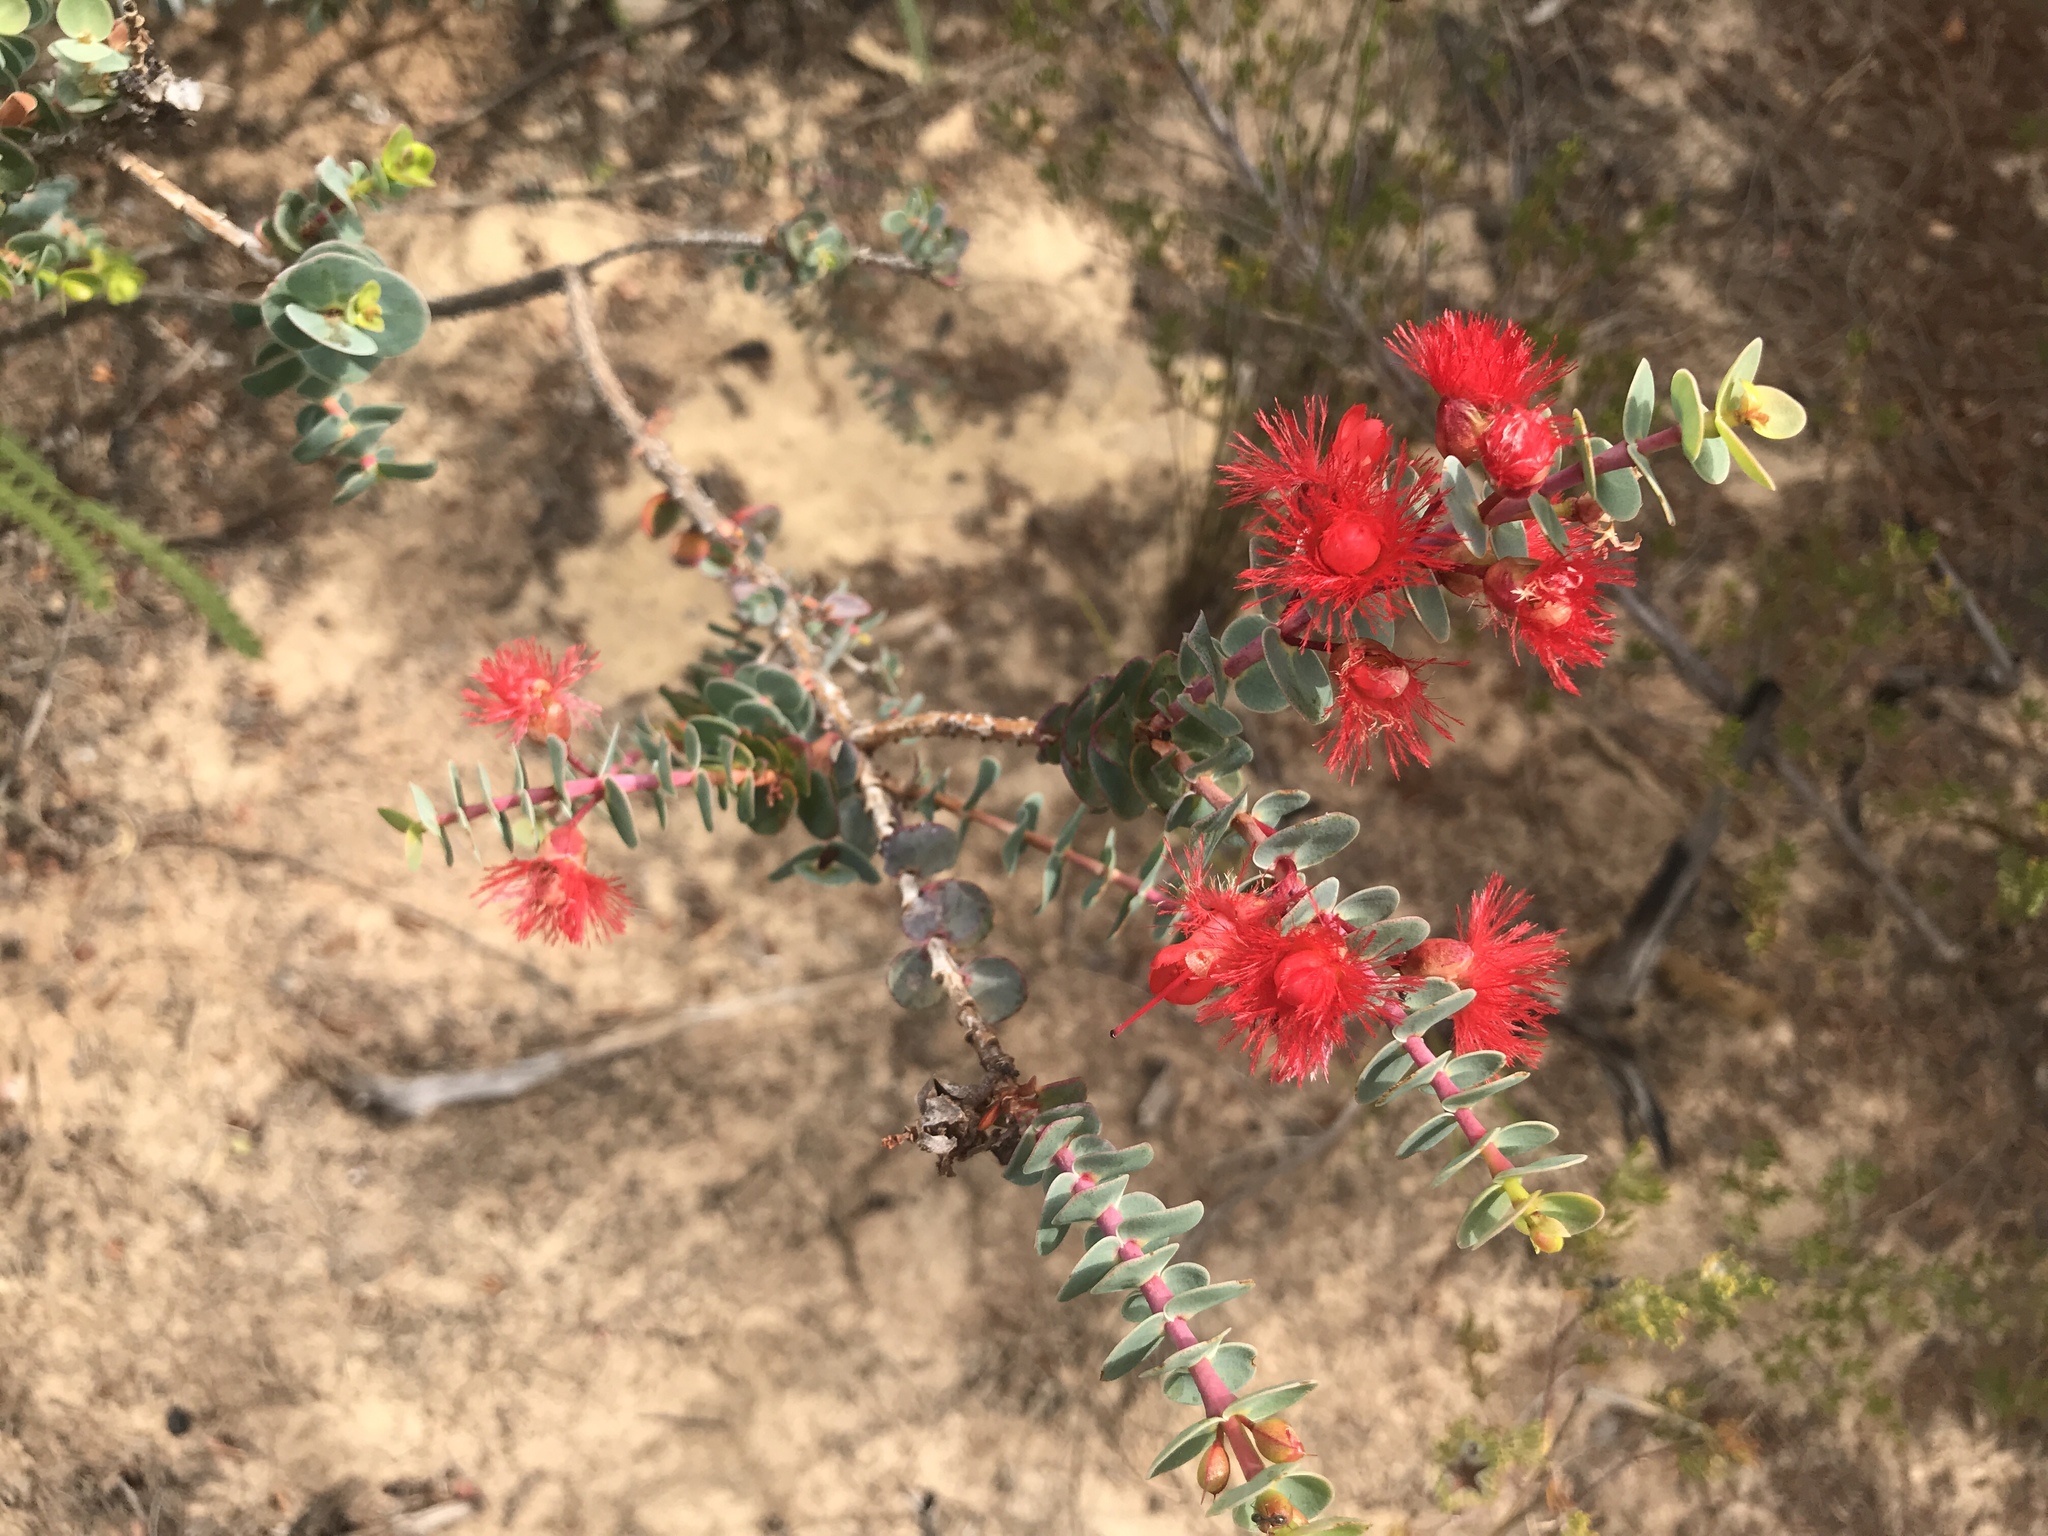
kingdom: Plantae
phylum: Tracheophyta
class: Magnoliopsida
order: Myrtales
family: Myrtaceae
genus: Verticordia
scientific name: Verticordia grandis
